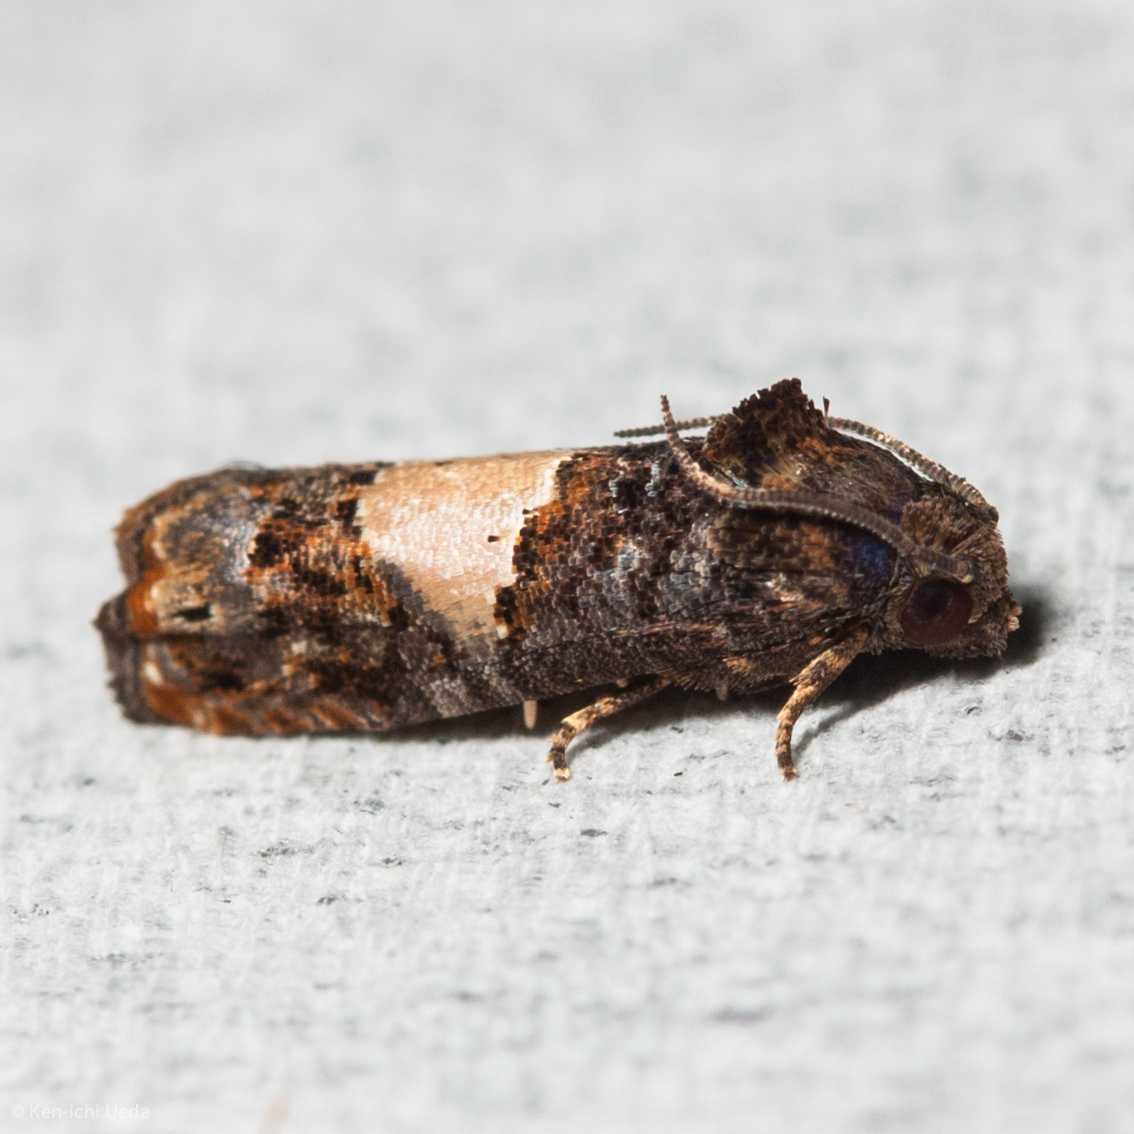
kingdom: Animalia
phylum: Arthropoda
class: Insecta
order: Lepidoptera
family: Tortricidae
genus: Epiblema
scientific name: Epiblema glenni
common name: Glenn's epiblema
